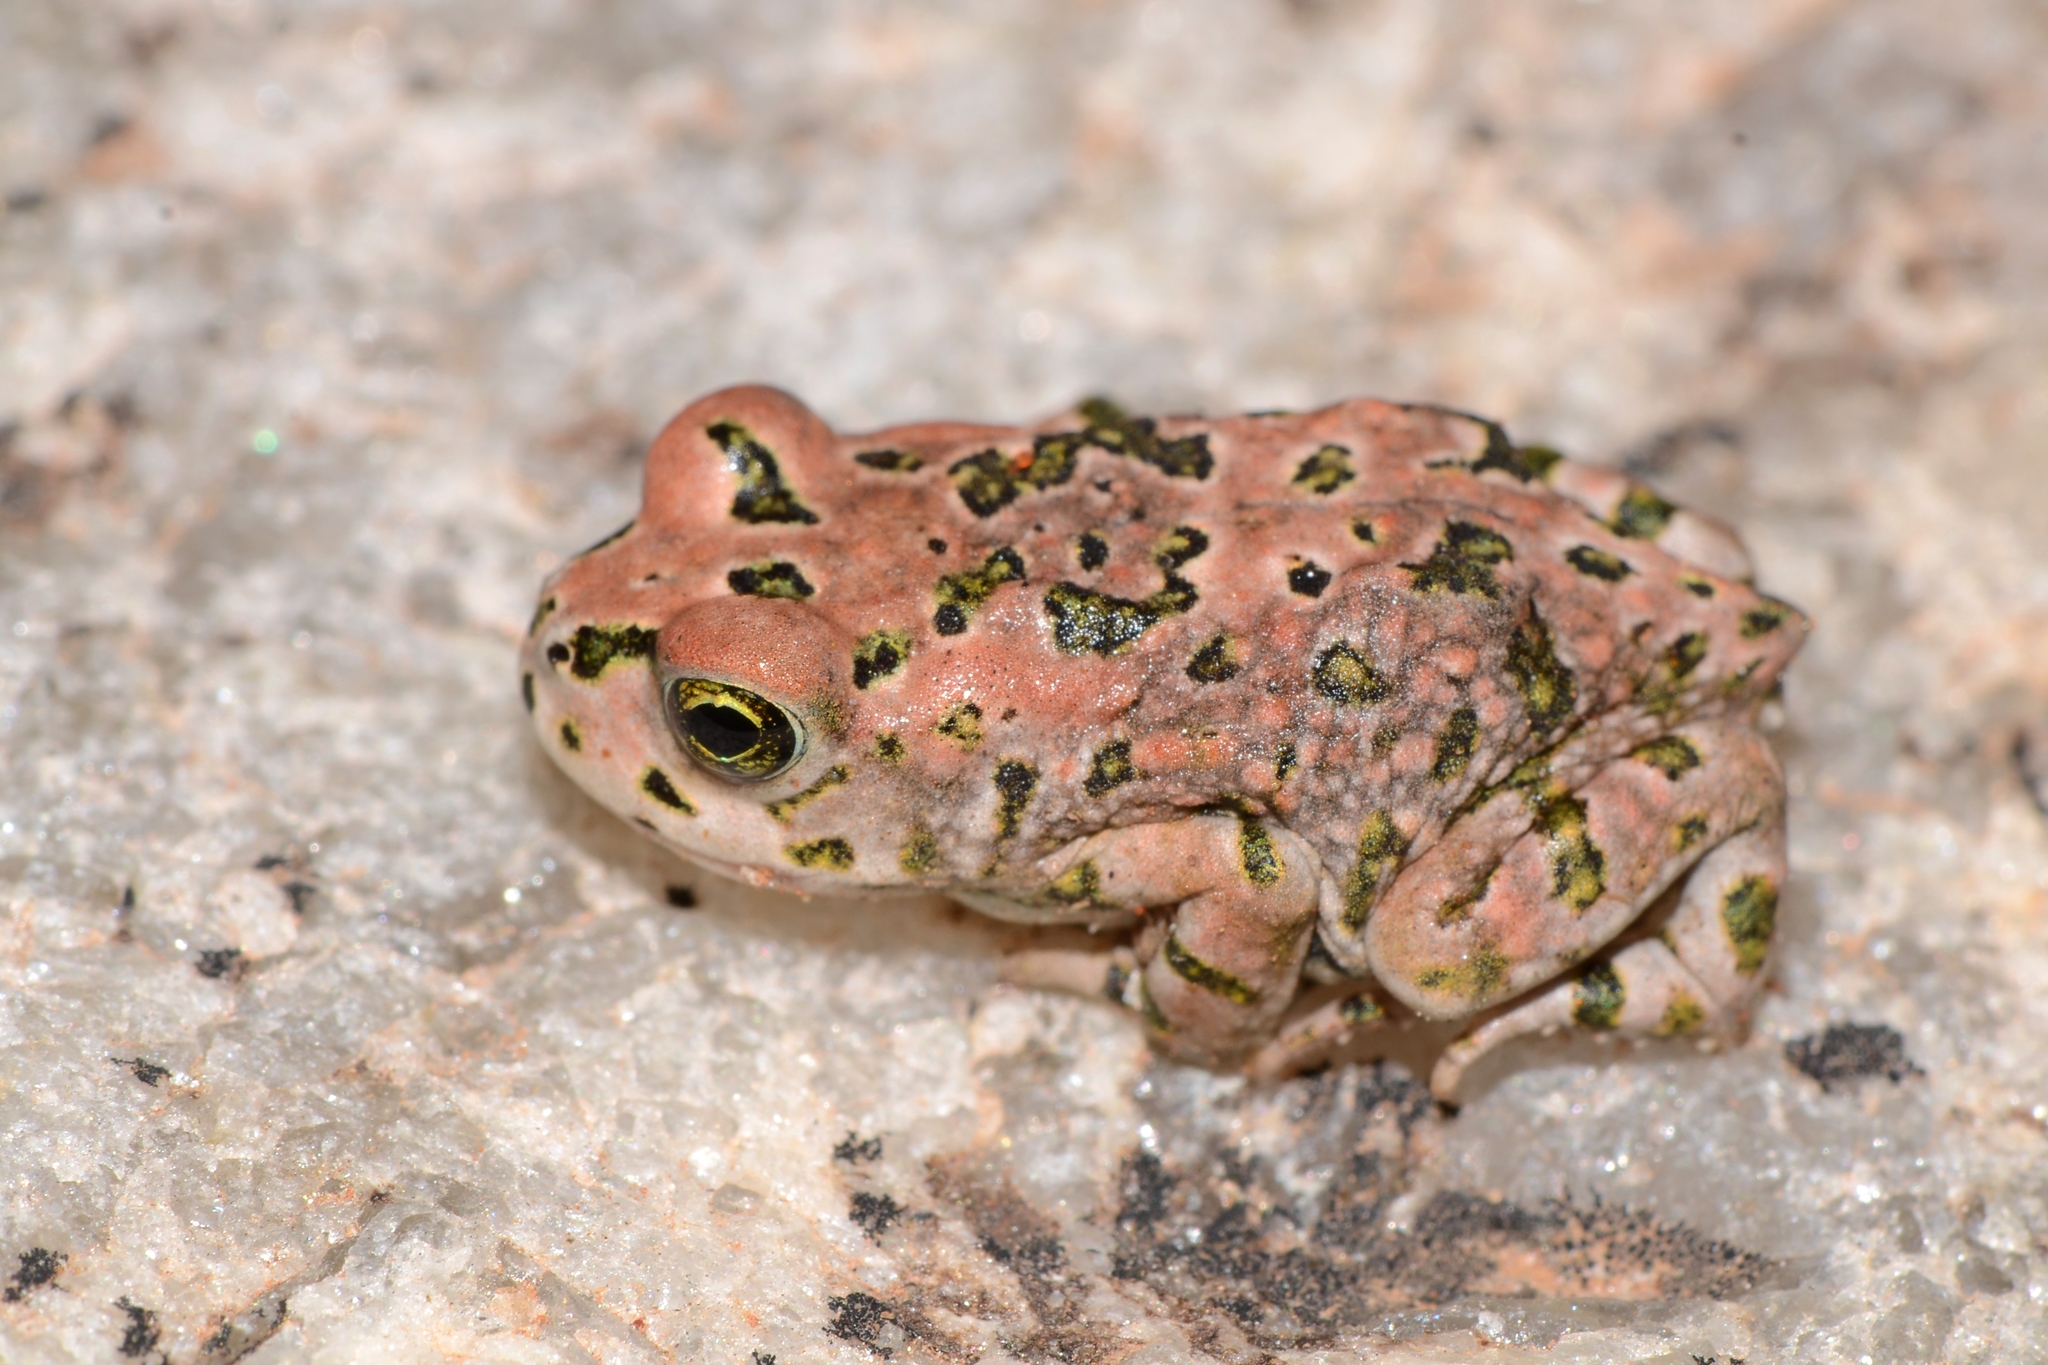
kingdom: Animalia
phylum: Chordata
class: Amphibia
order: Anura
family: Bufonidae
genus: Vandijkophrynus
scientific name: Vandijkophrynus robinsoni
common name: Paradise toad
